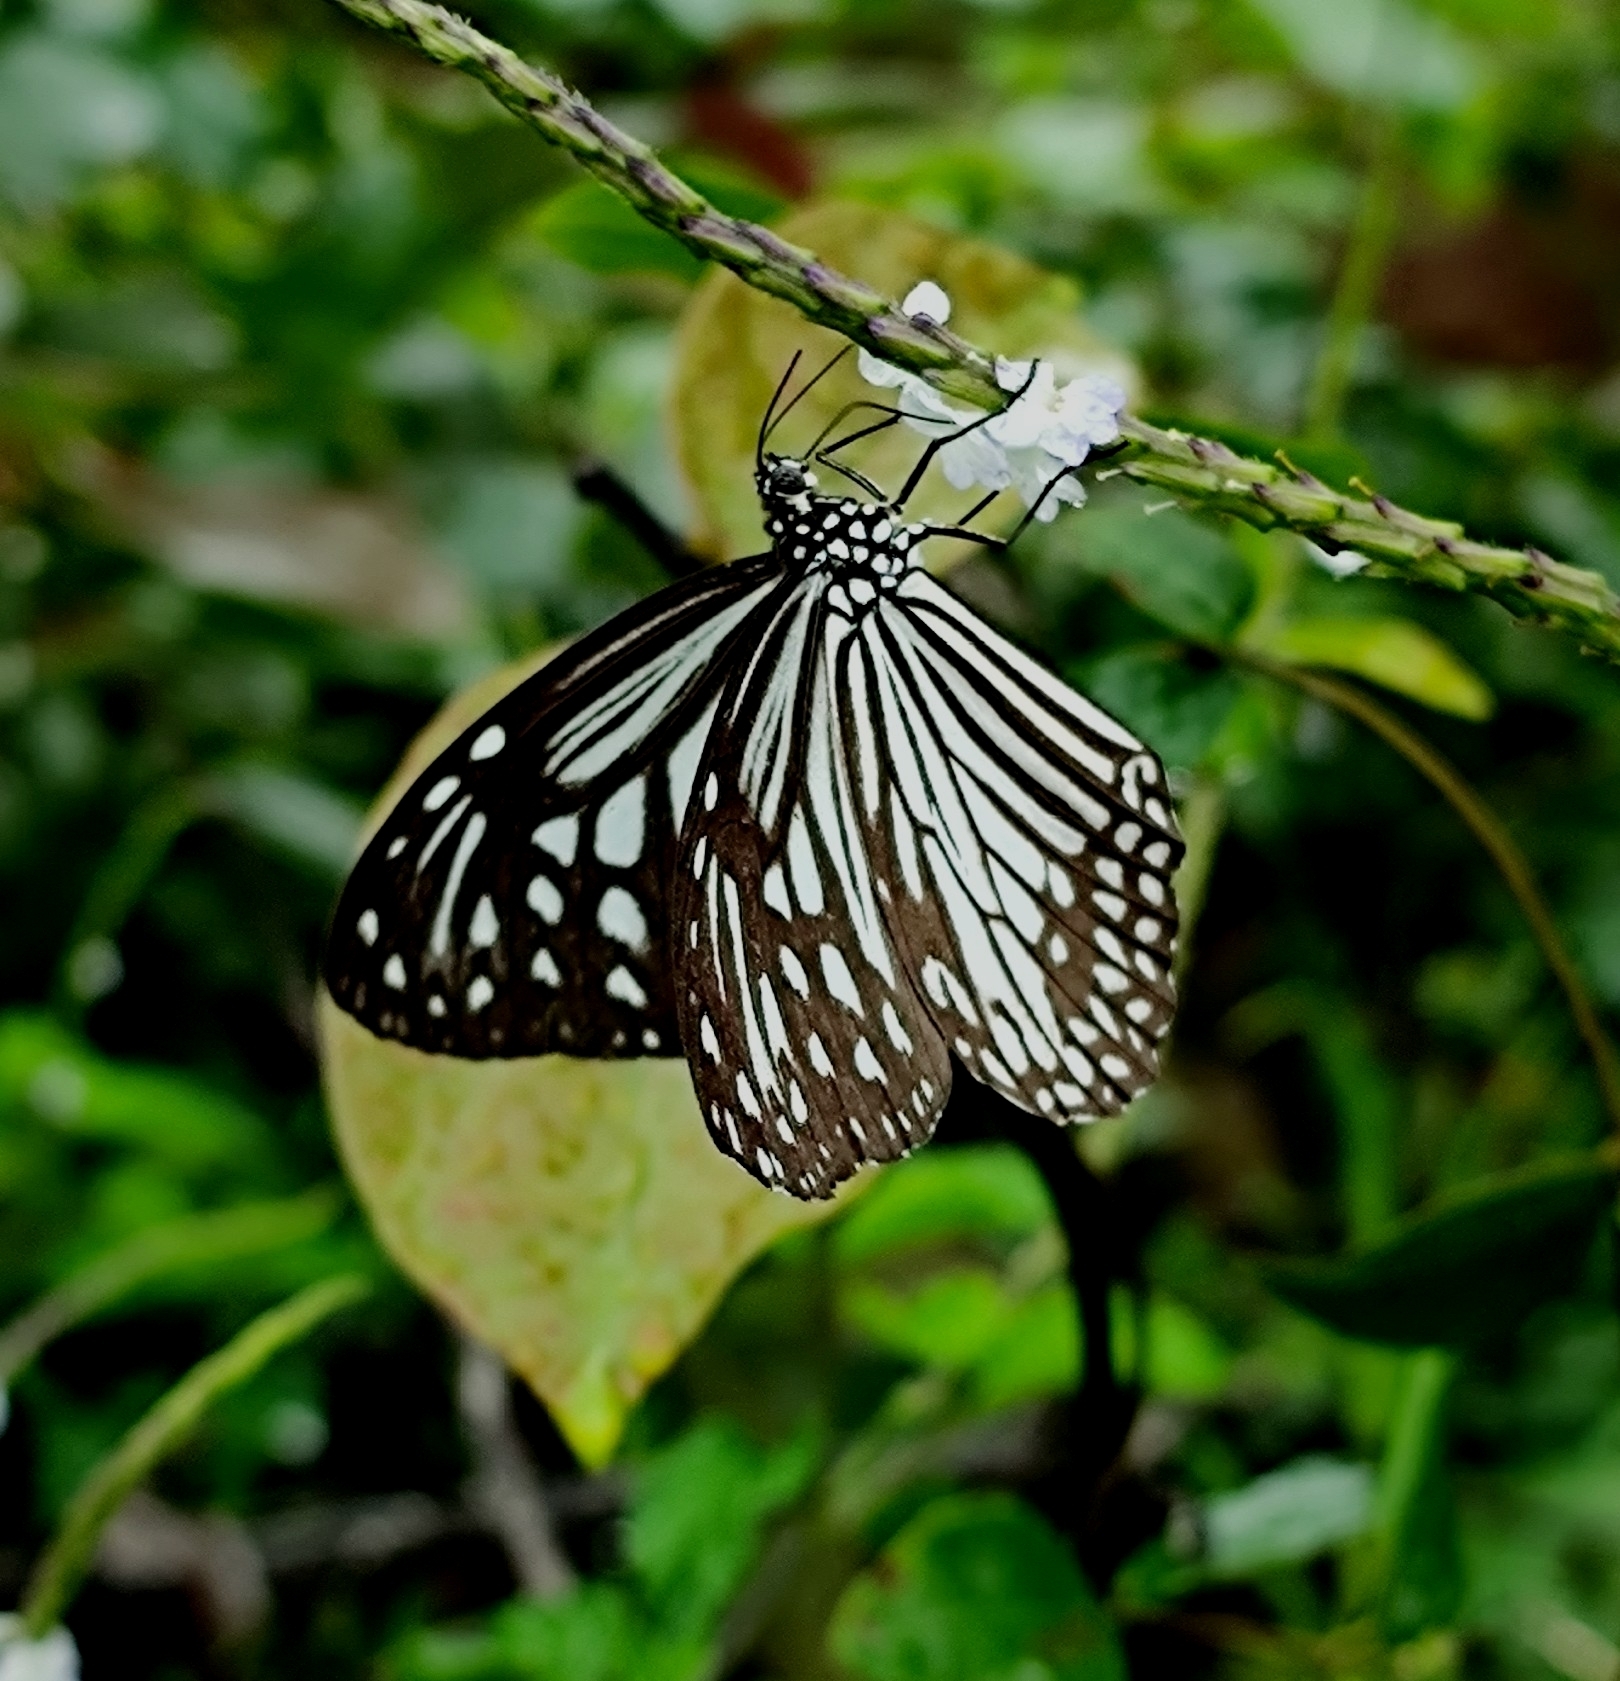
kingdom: Animalia
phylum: Arthropoda
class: Insecta
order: Lepidoptera
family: Nymphalidae
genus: Parantica
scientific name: Parantica aglea
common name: Glassy tiger
